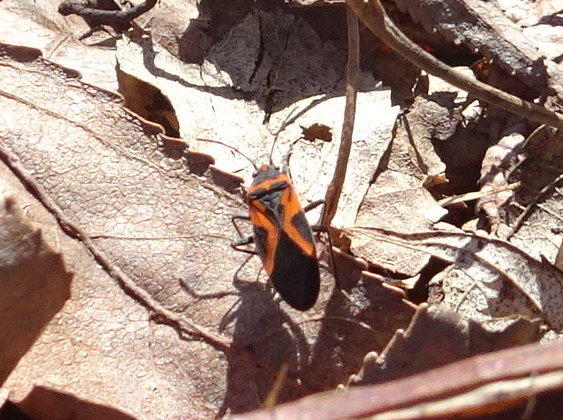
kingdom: Animalia
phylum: Arthropoda
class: Insecta
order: Hemiptera
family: Lygaeidae
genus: Lygaeus
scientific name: Lygaeus turcicus
